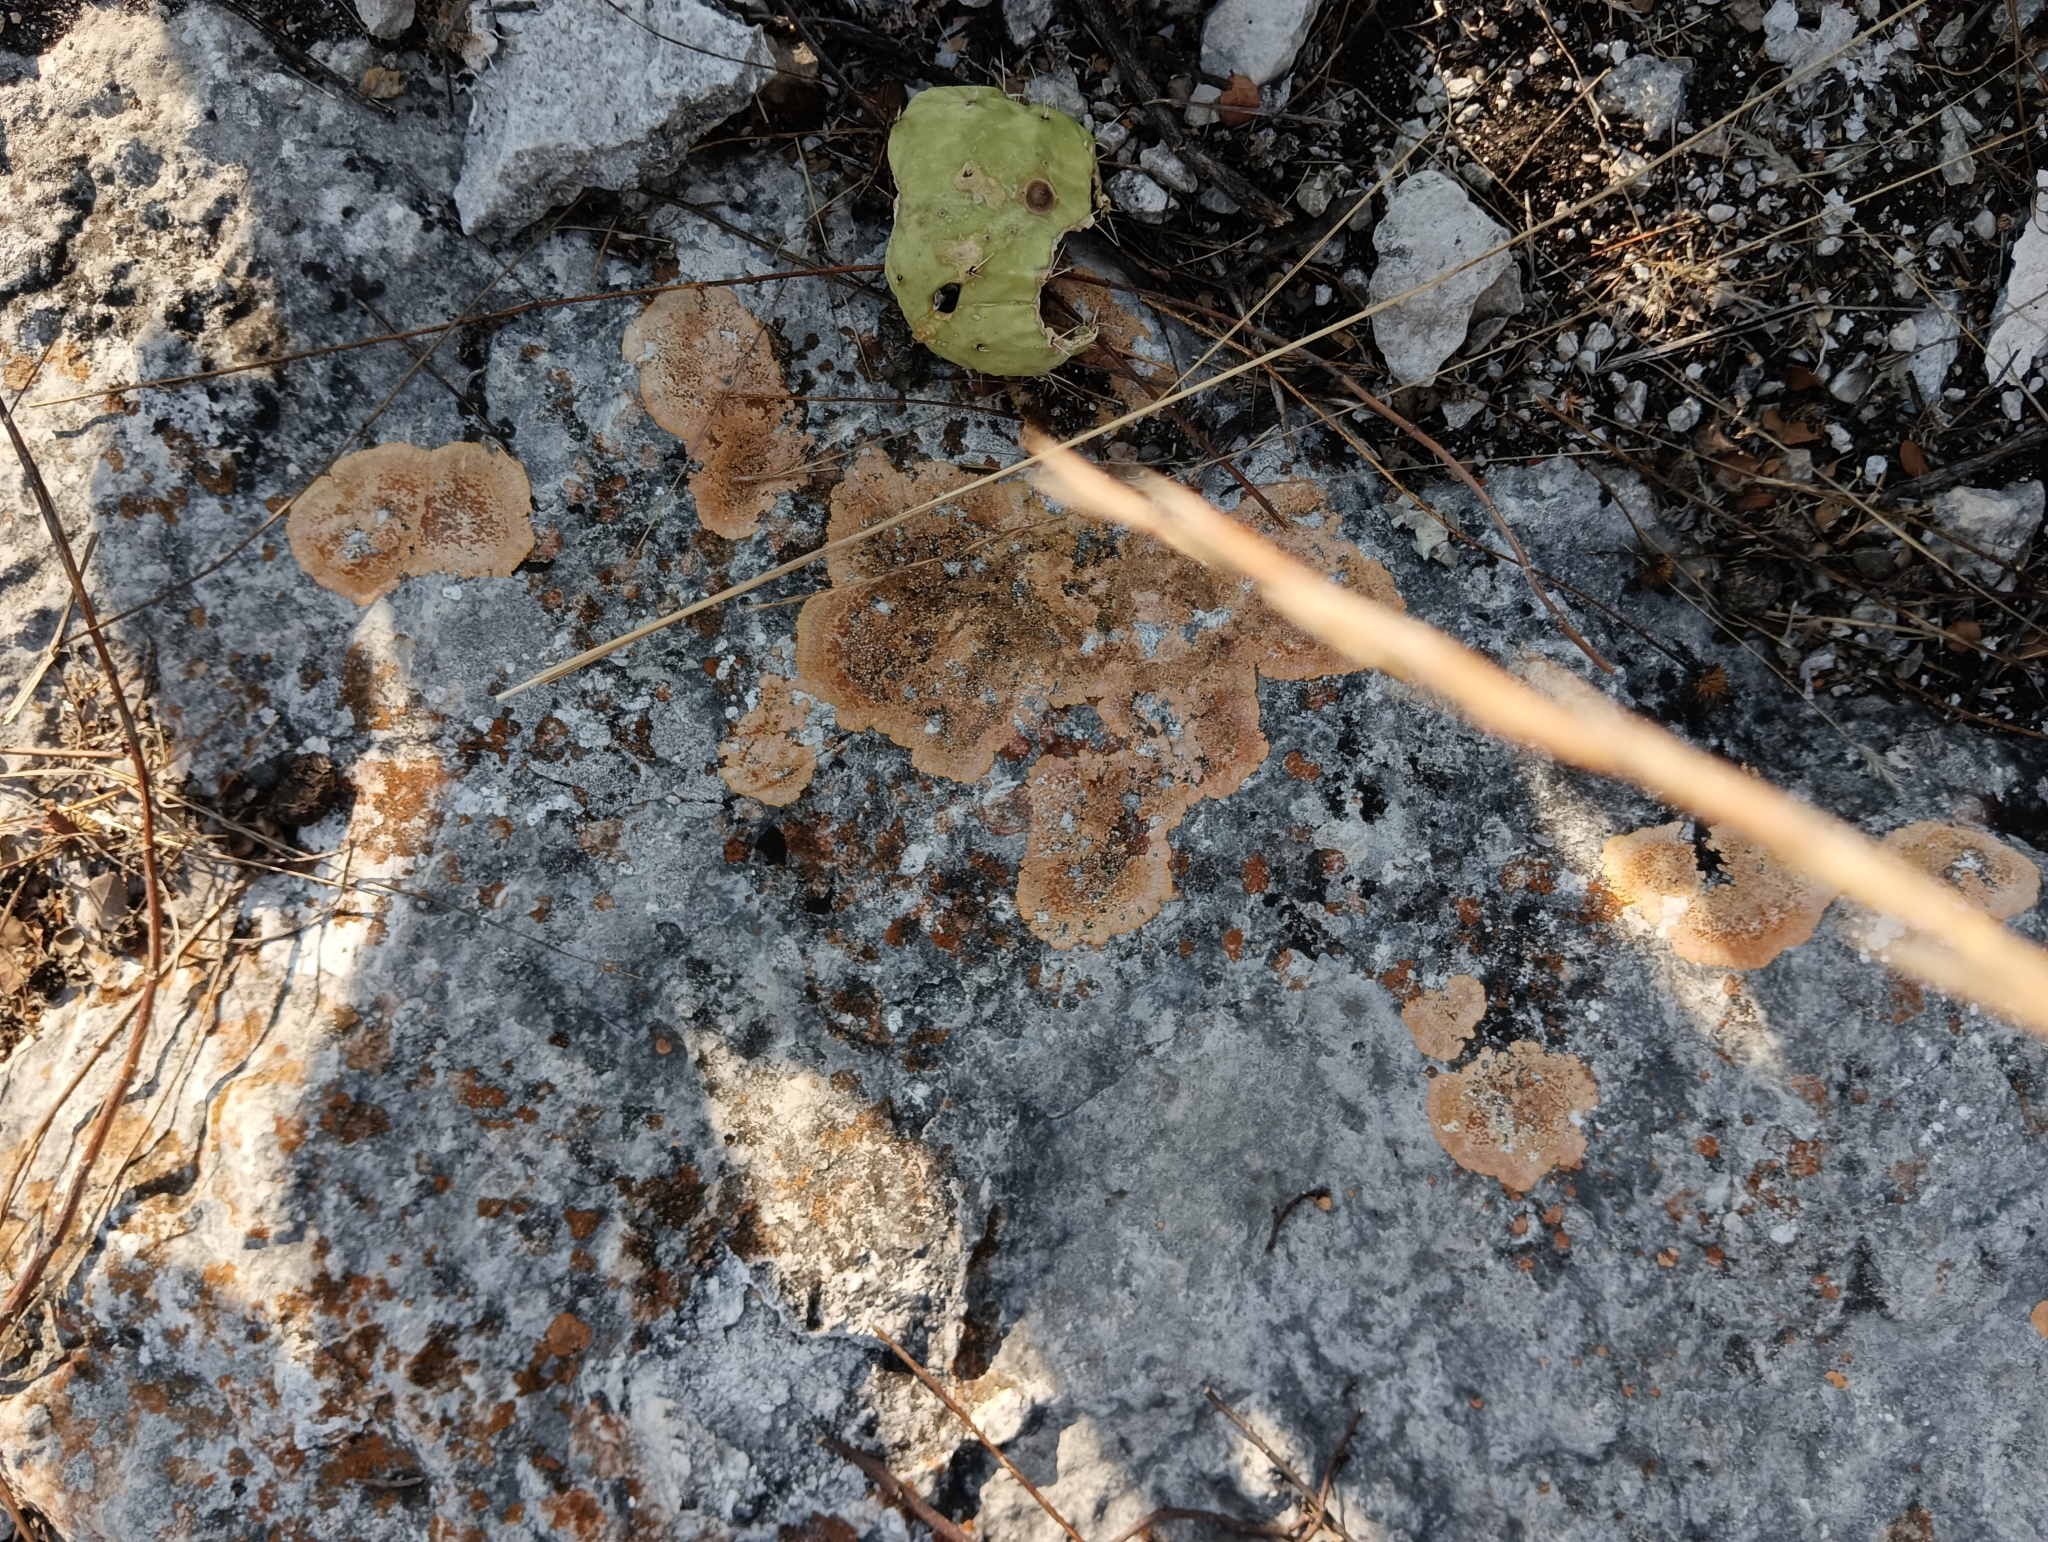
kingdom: Fungi
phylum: Ascomycota
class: Lecanoromycetes
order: Teloschistales
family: Teloschistaceae
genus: Caloplaca
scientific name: Caloplaca eugyra
